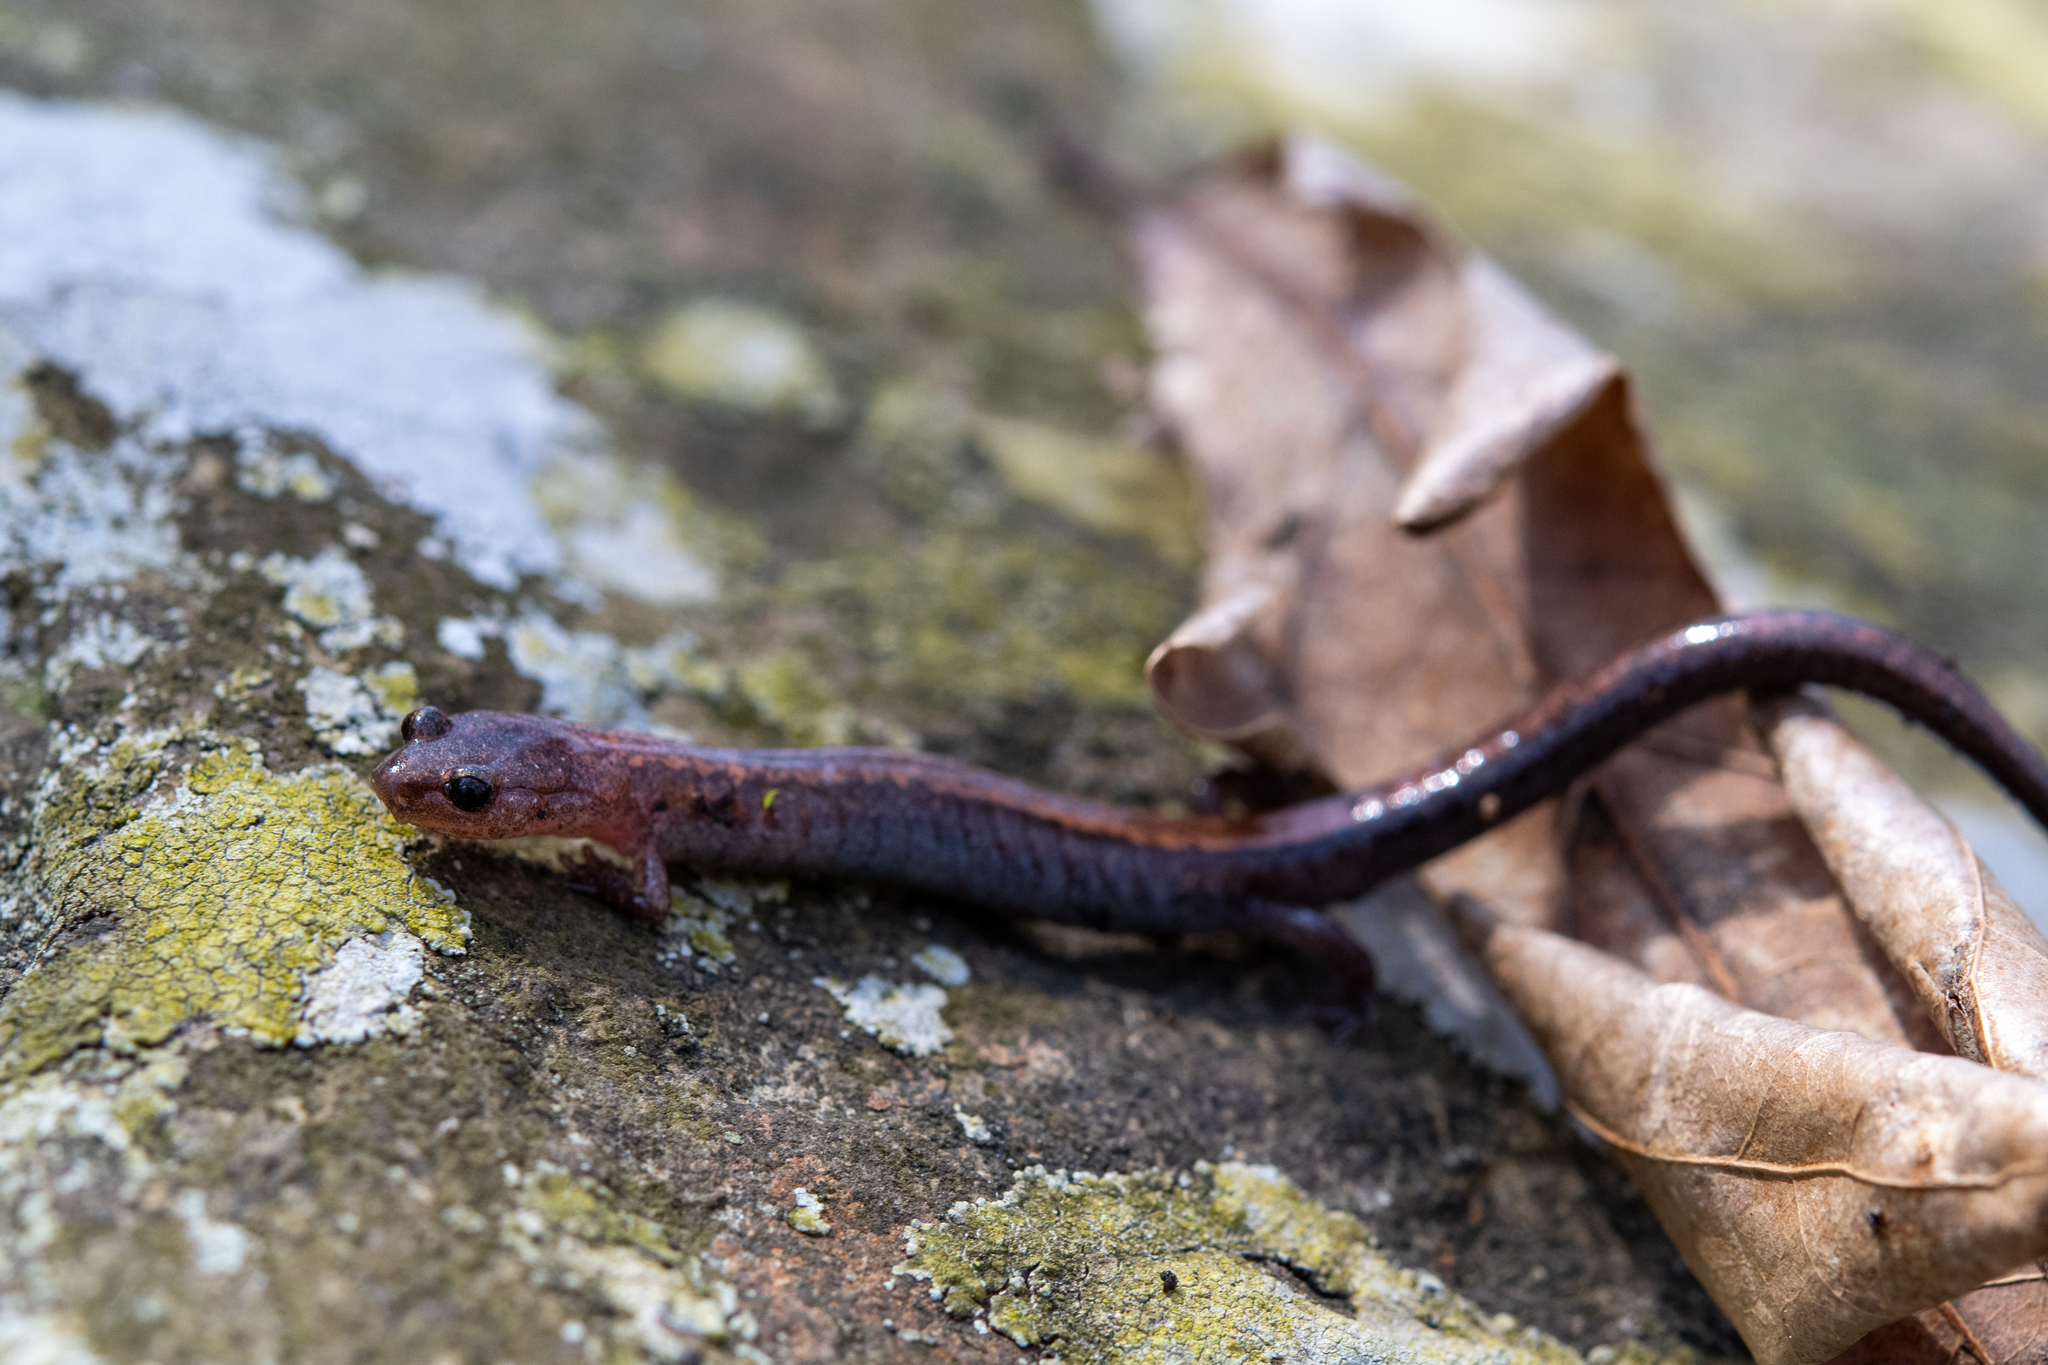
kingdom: Animalia
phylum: Chordata
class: Amphibia
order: Caudata
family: Plethodontidae
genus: Plethodon
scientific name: Plethodon cinereus
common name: Redback salamander
